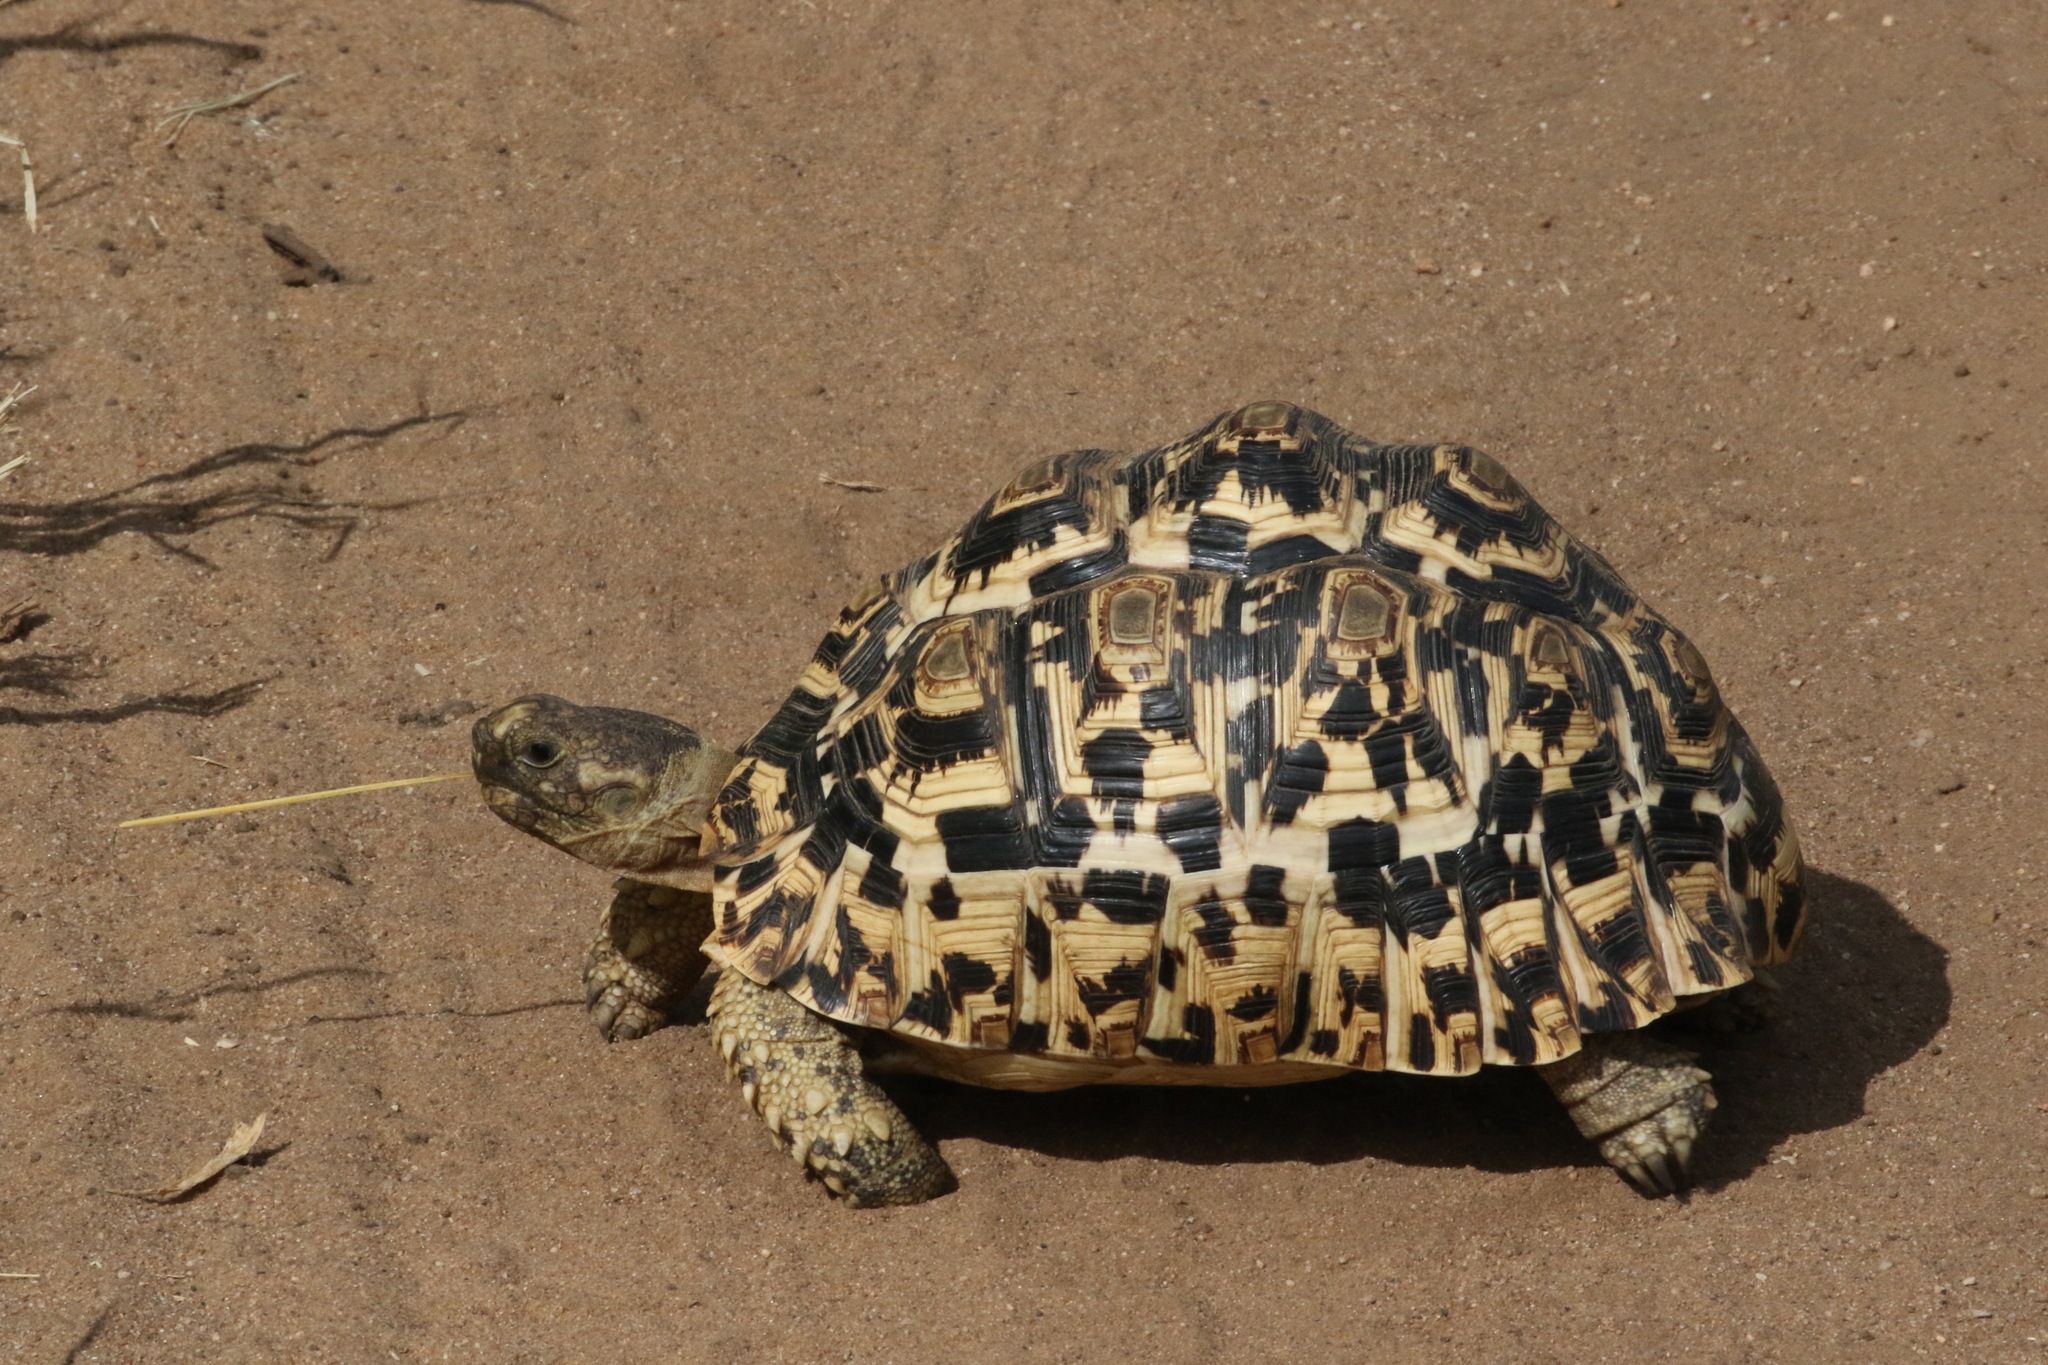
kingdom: Animalia
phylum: Chordata
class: Testudines
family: Testudinidae
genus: Stigmochelys
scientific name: Stigmochelys pardalis
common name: Leopard tortoise
